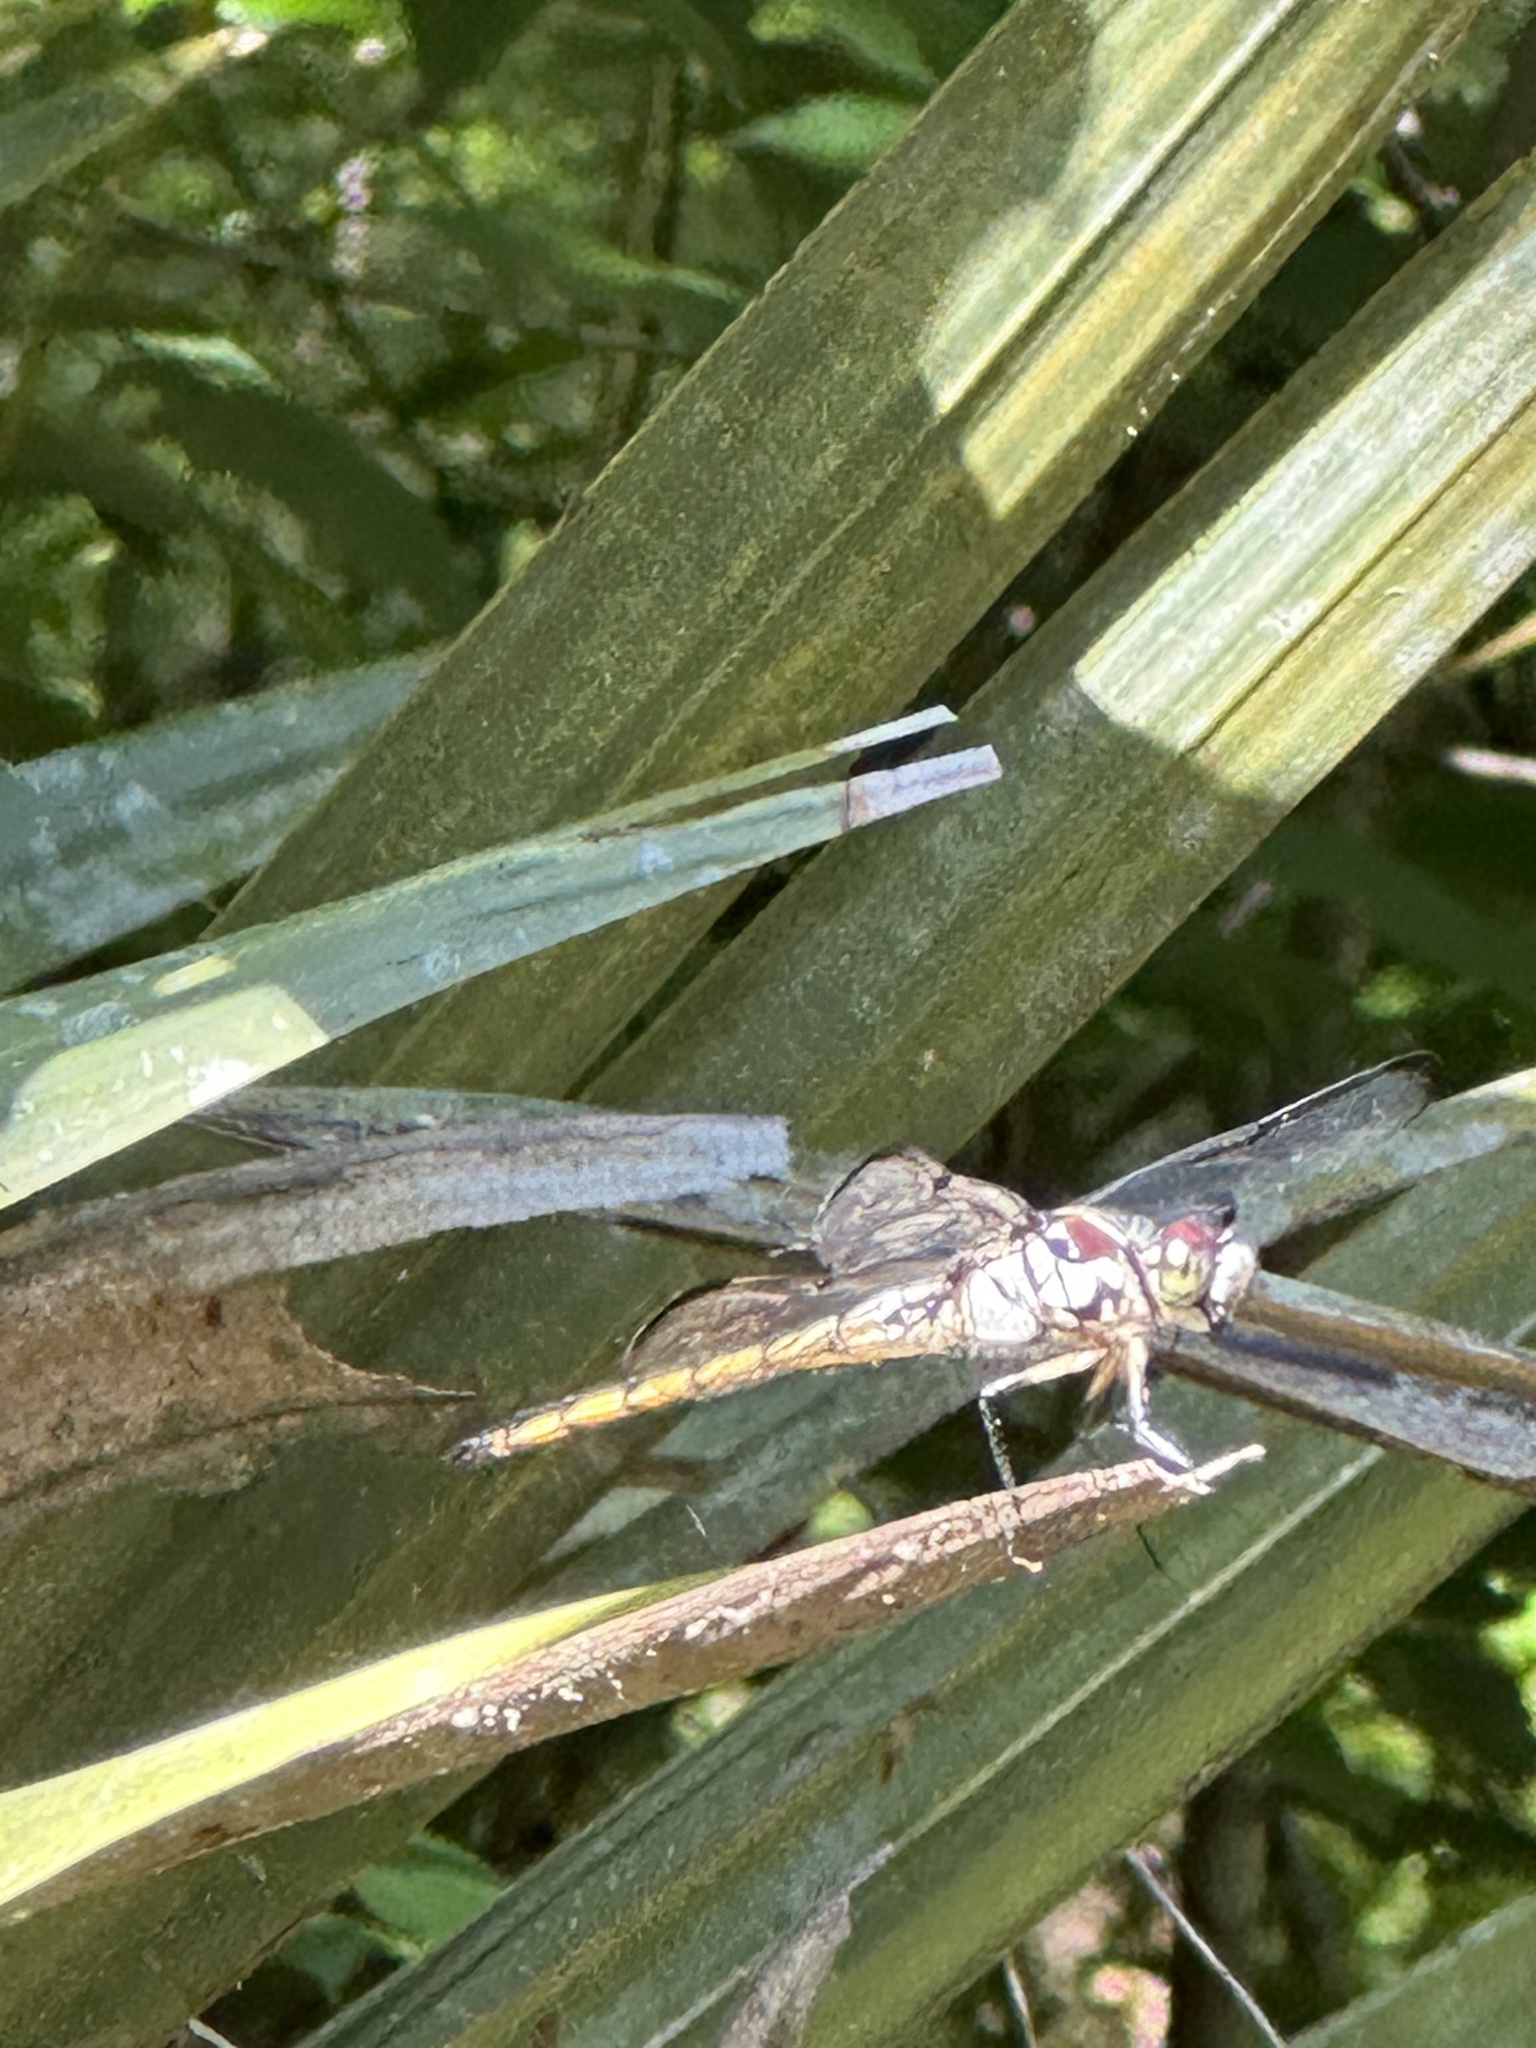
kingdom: Animalia
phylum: Arthropoda
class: Insecta
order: Odonata
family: Libellulidae
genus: Libellula
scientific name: Libellula vibrans
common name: Great blue skimmer
